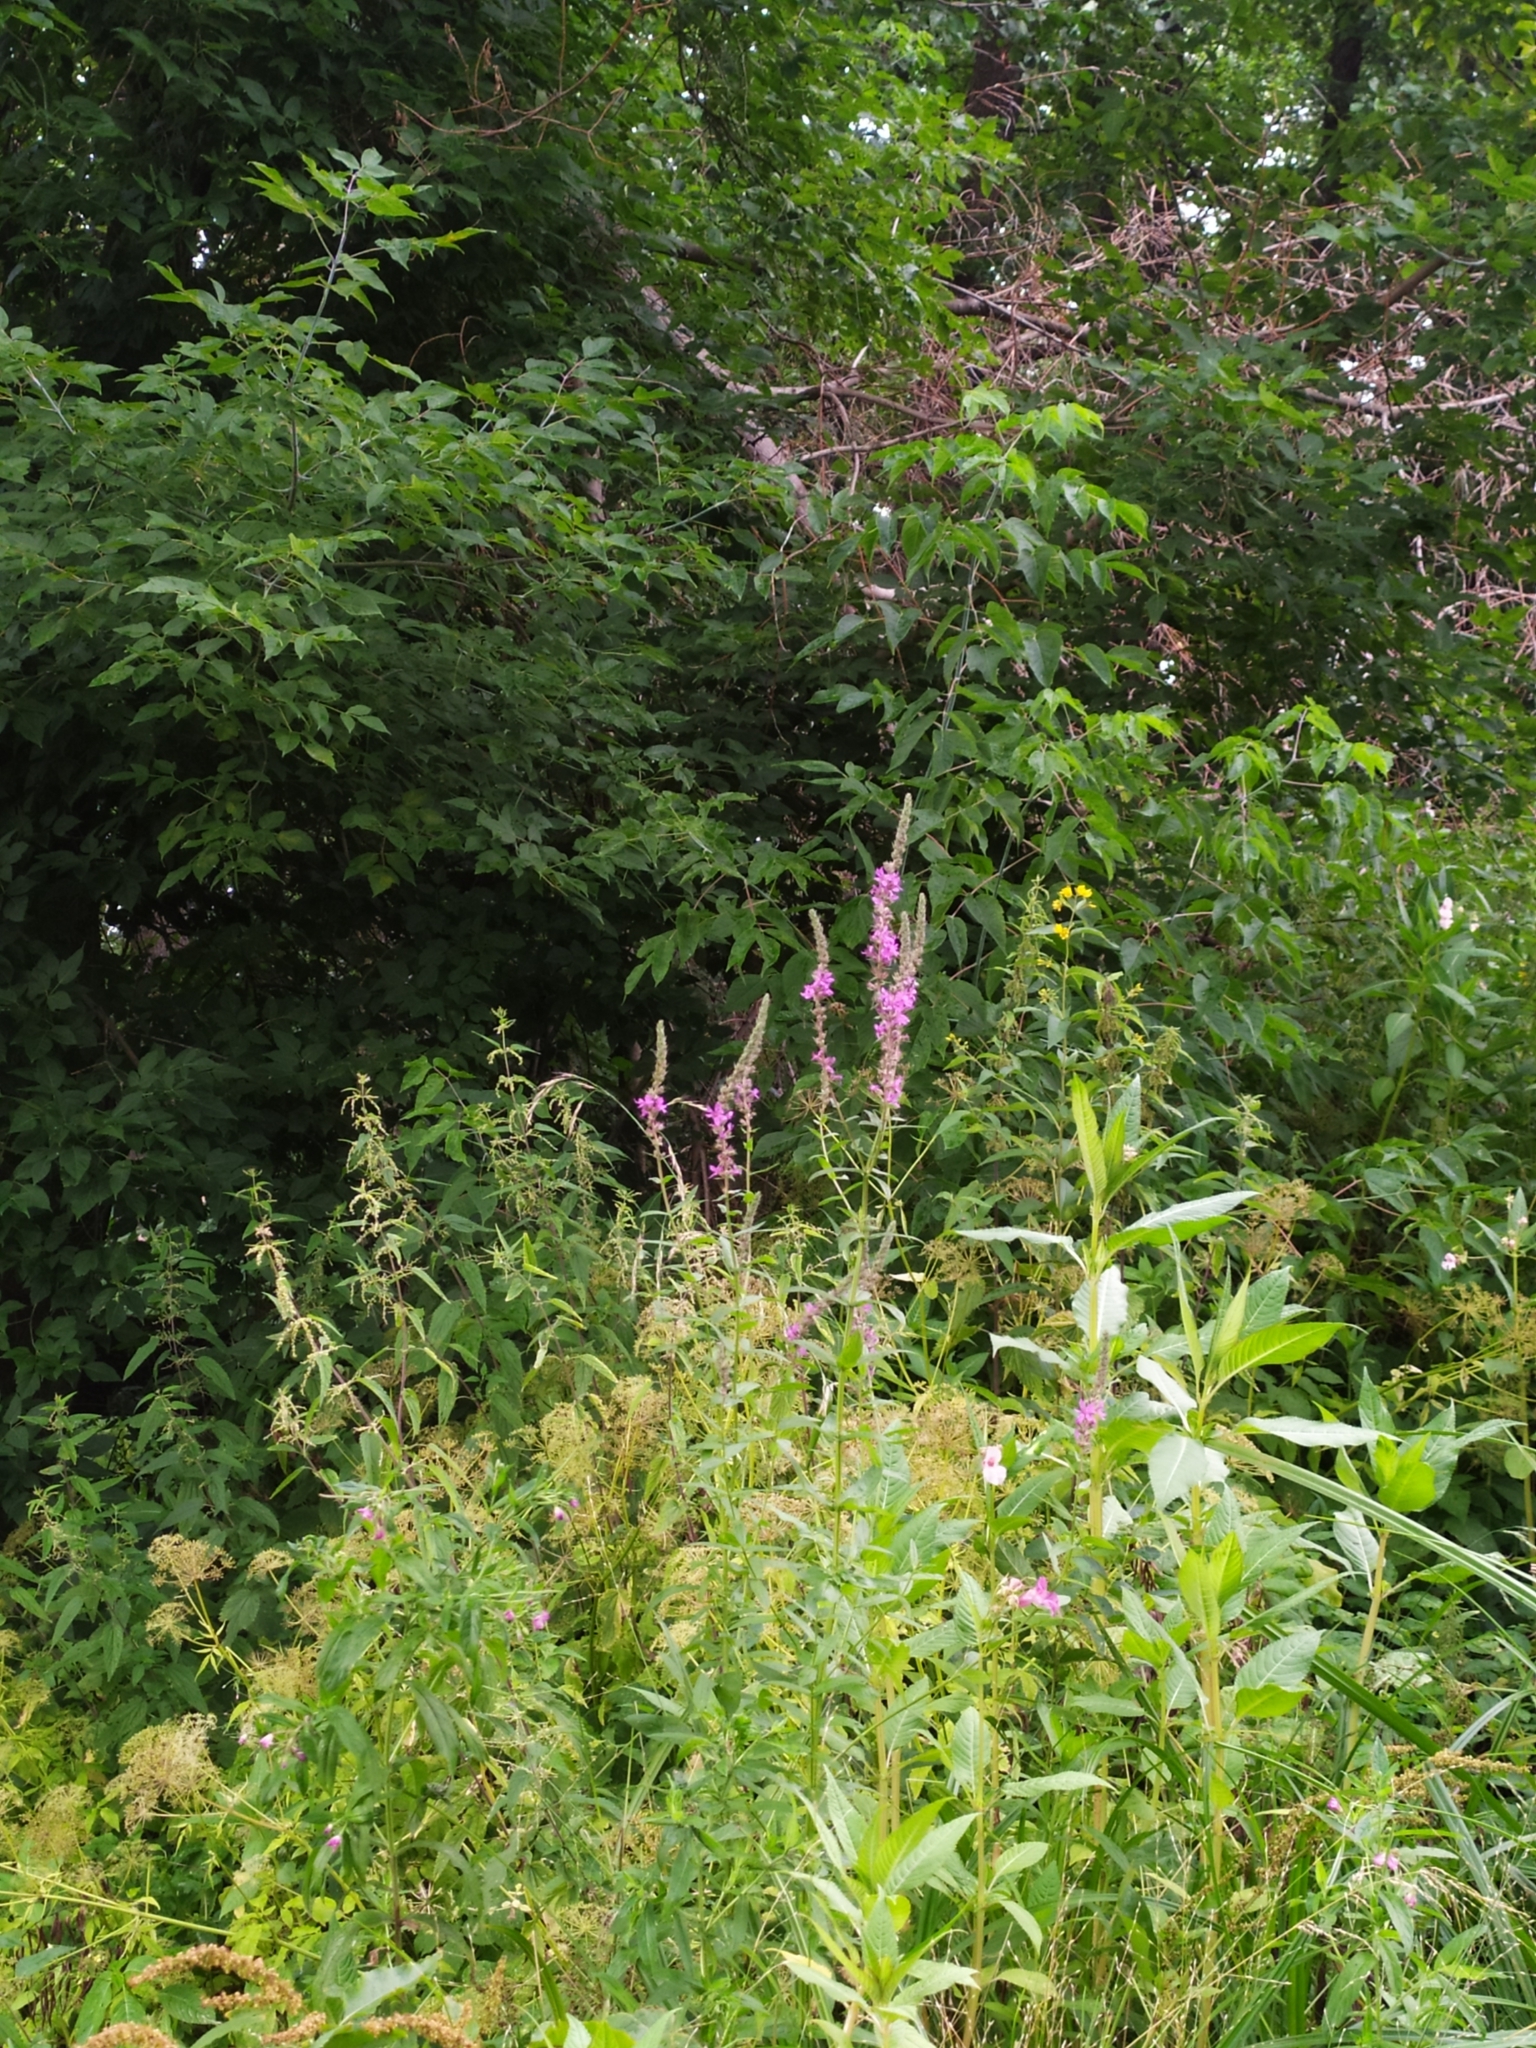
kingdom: Plantae
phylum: Tracheophyta
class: Magnoliopsida
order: Myrtales
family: Lythraceae
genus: Lythrum
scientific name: Lythrum salicaria
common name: Purple loosestrife
